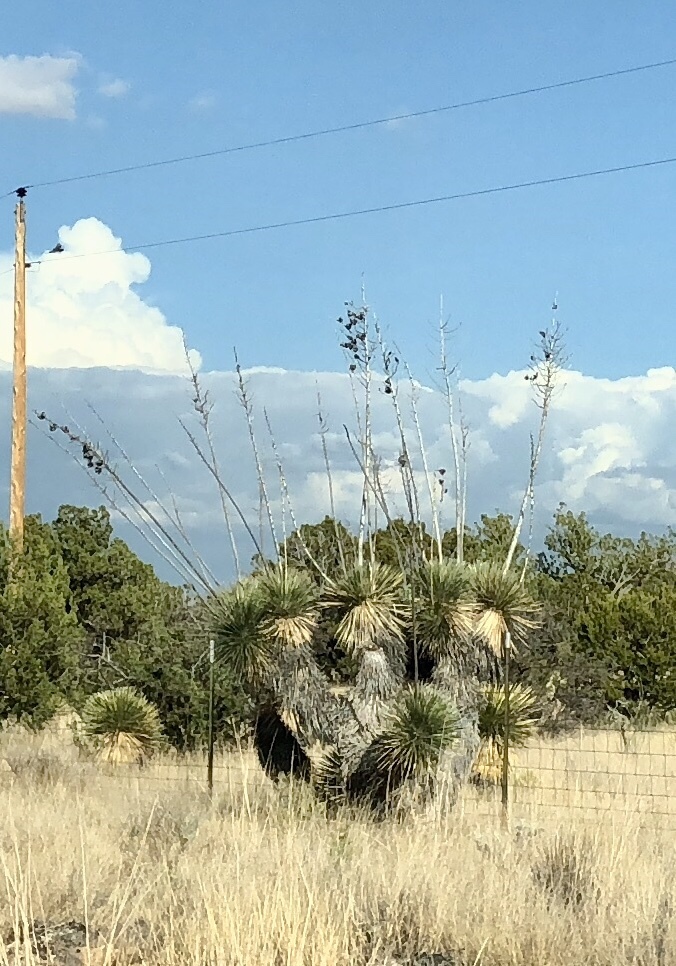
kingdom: Plantae
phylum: Tracheophyta
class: Liliopsida
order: Asparagales
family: Asparagaceae
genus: Yucca
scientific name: Yucca elata
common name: Palmella
